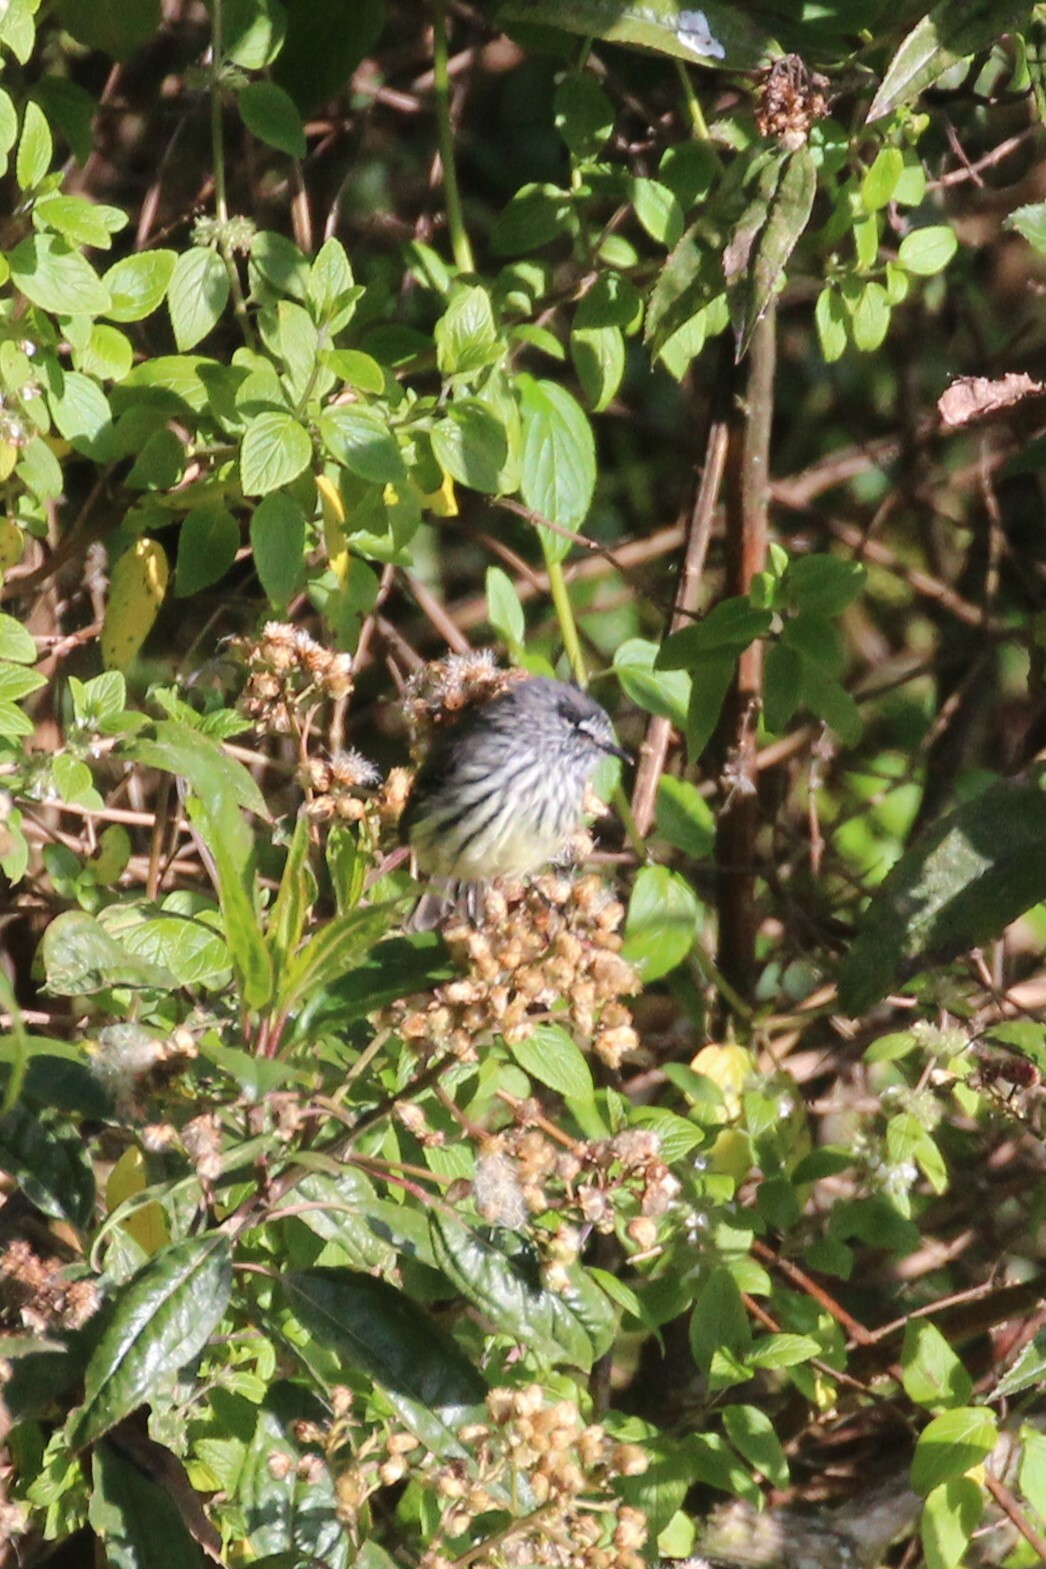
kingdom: Animalia
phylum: Chordata
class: Aves
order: Passeriformes
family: Tyrannidae
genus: Anairetes
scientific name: Anairetes parulus
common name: Tufted tit-tyrant
